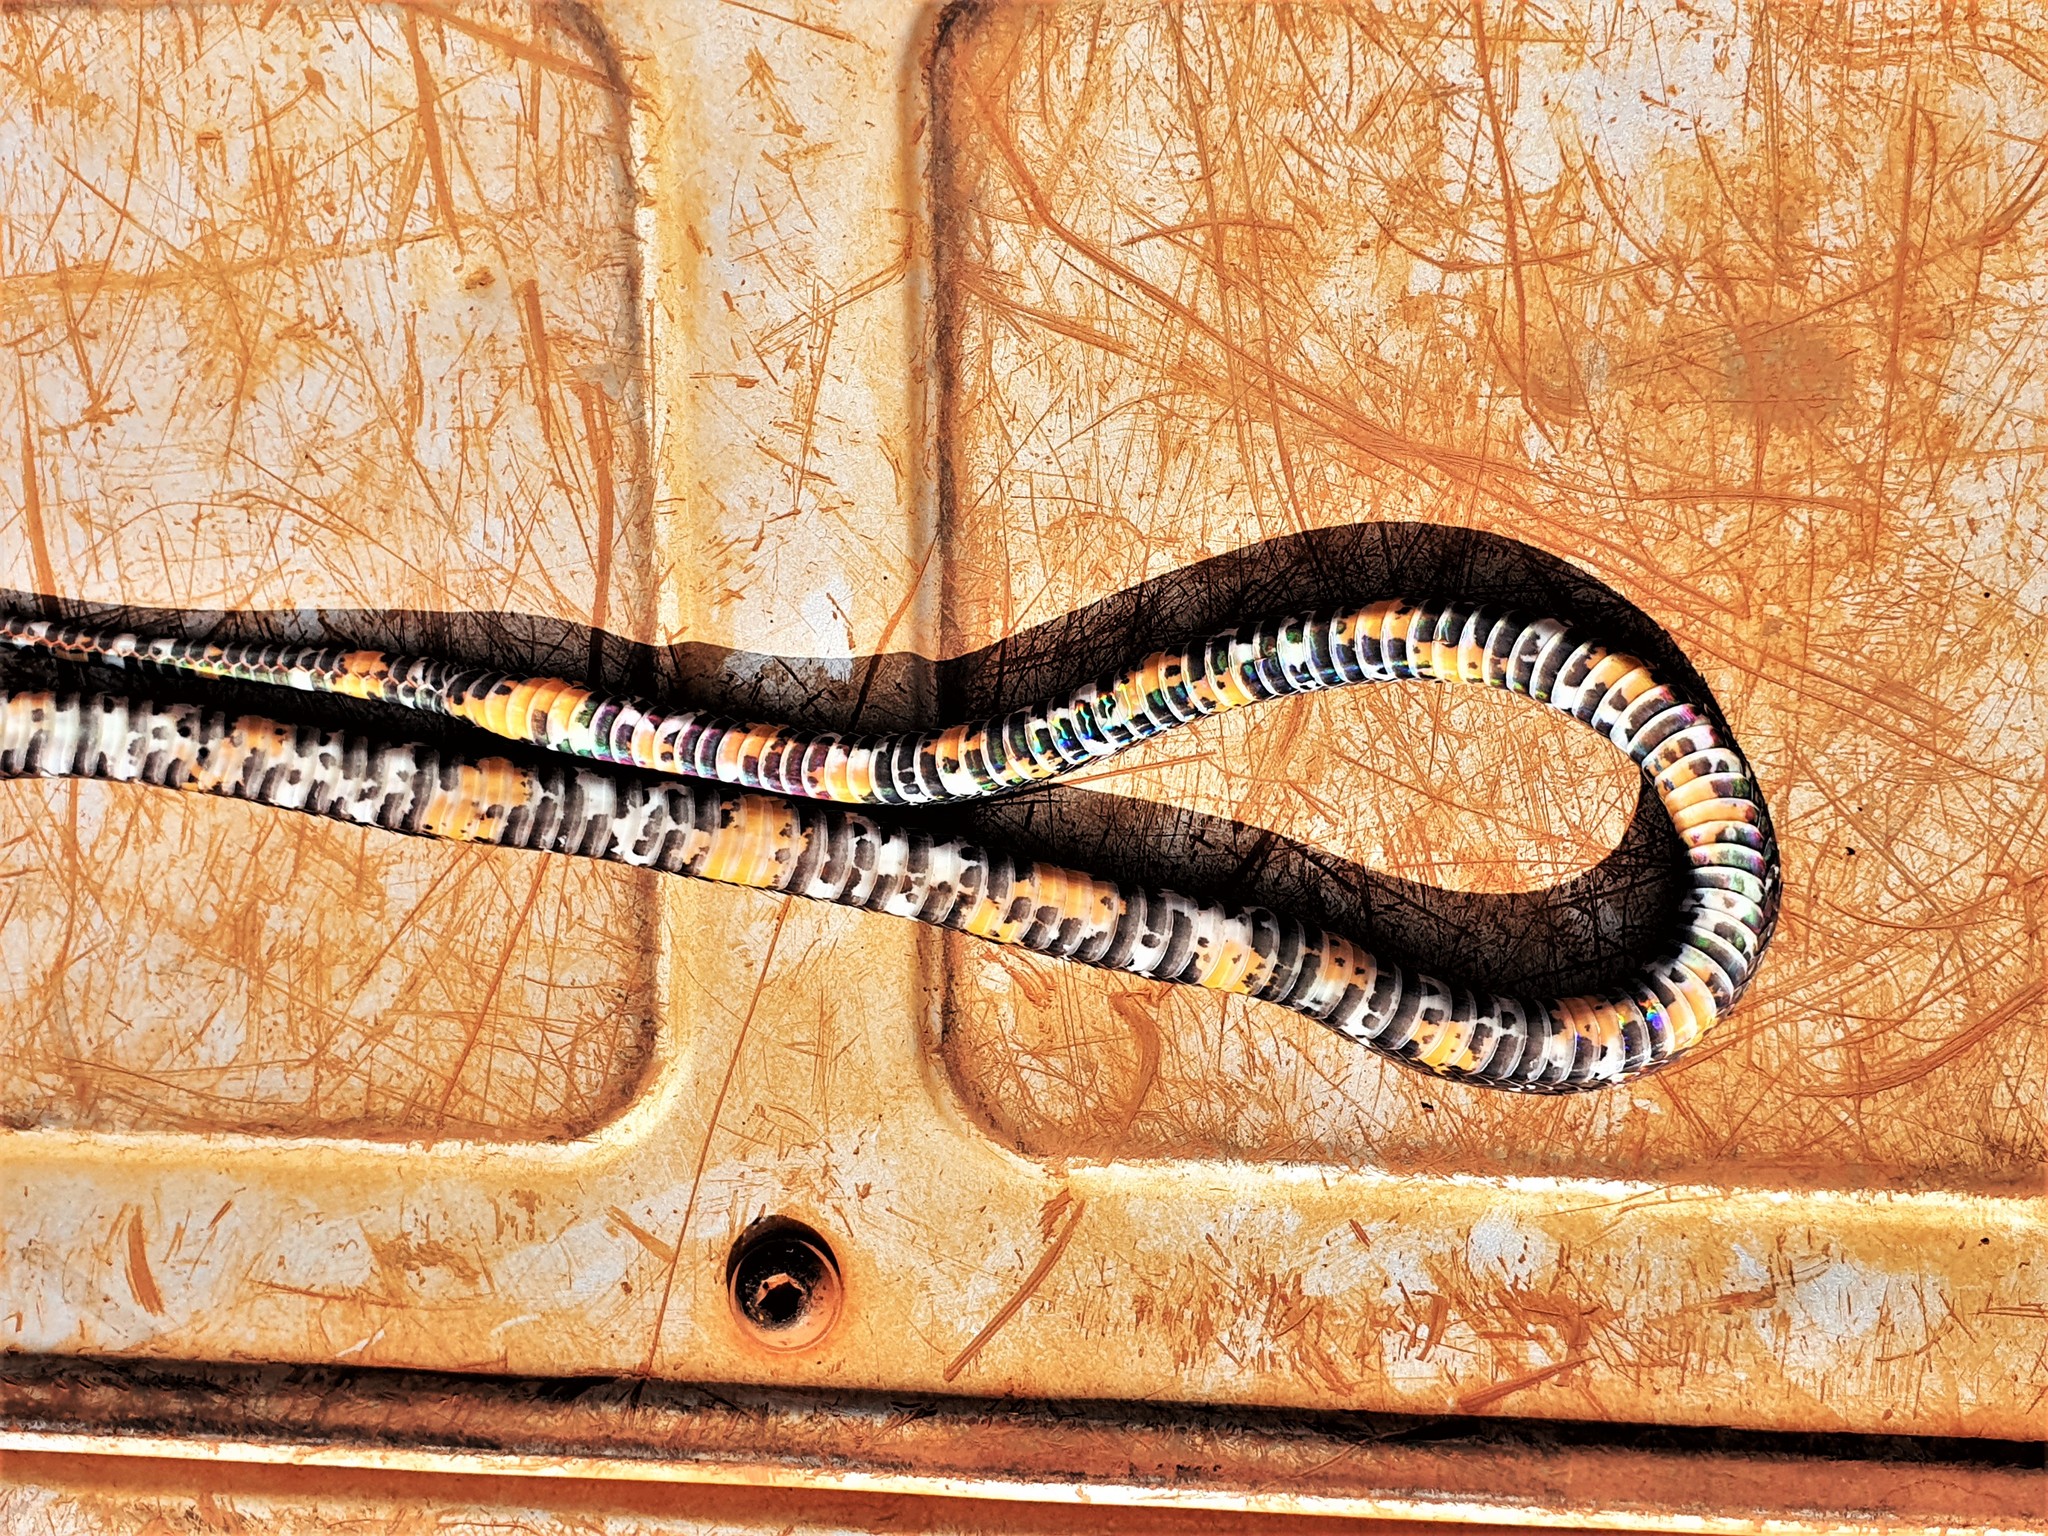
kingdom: Animalia
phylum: Chordata
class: Squamata
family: Colubridae
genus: Oxyrhopus
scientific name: Oxyrhopus melanogenys
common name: Tschudi's false coral snake
